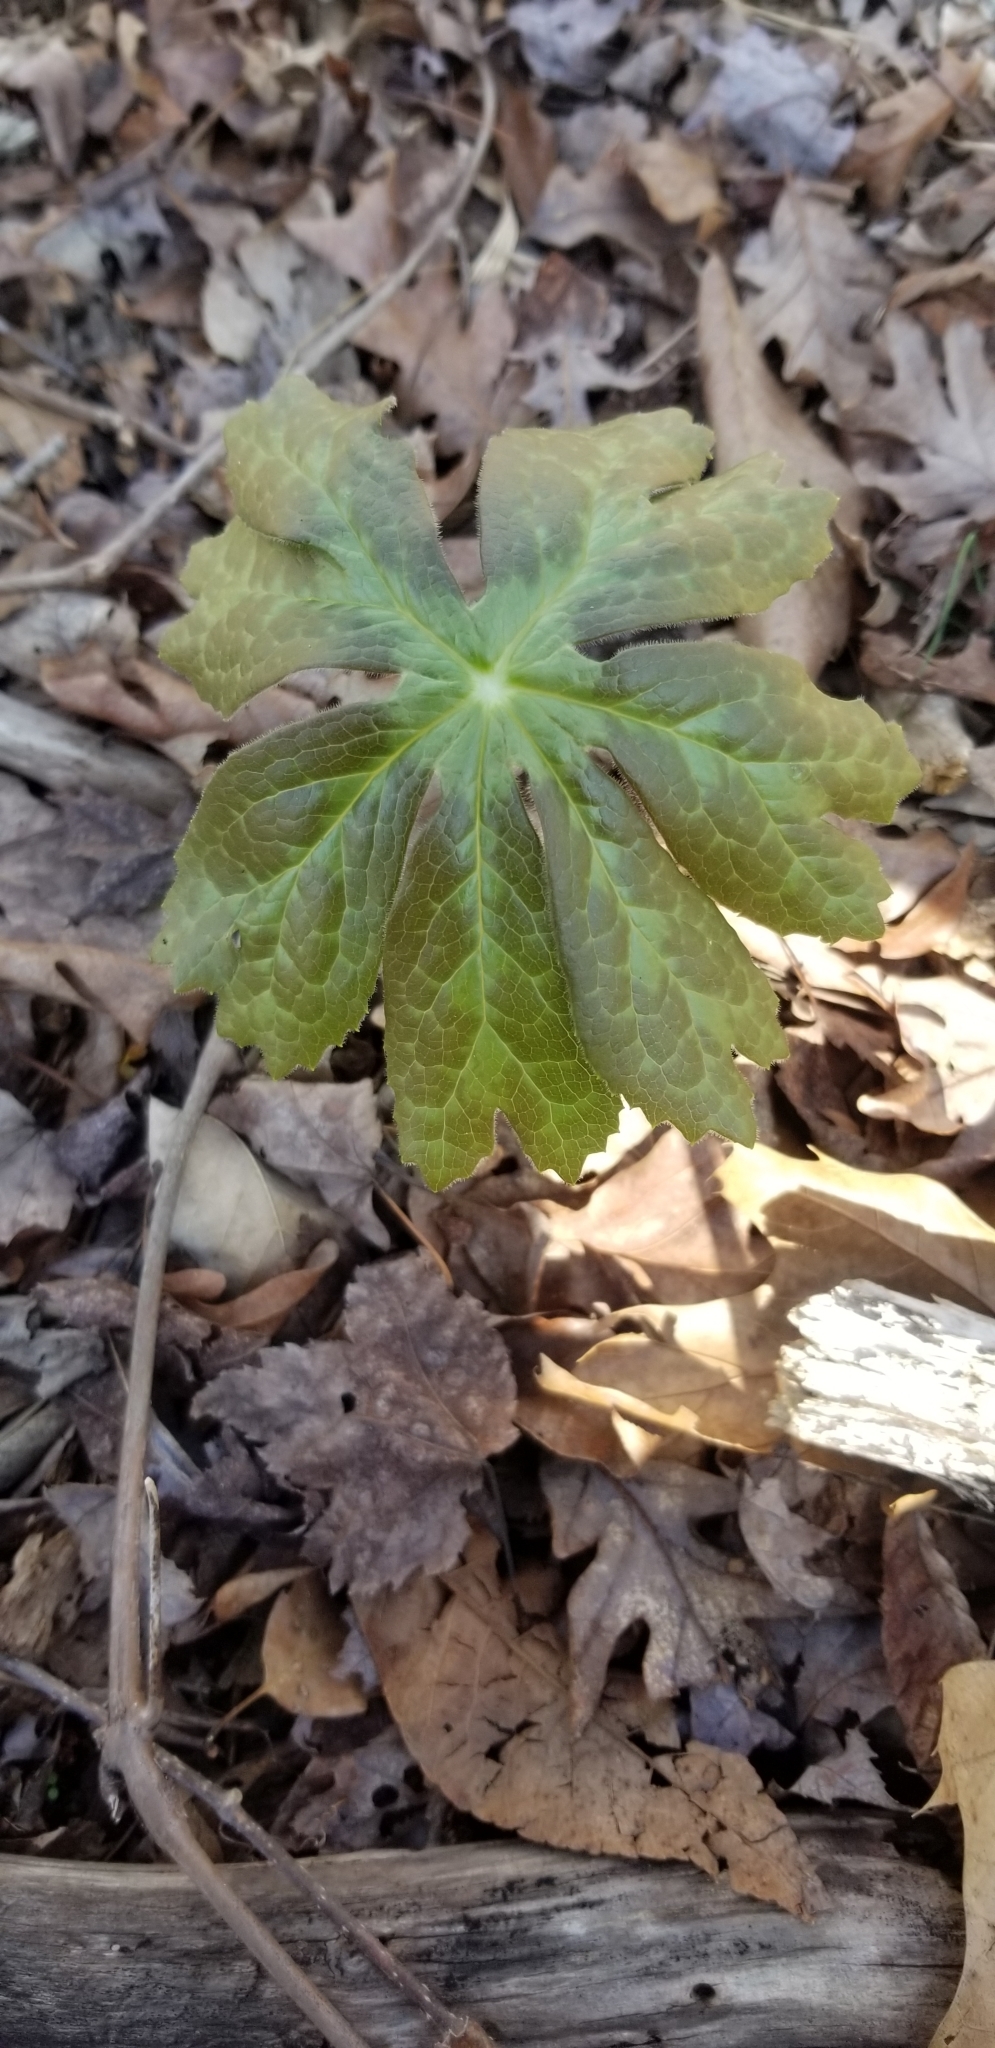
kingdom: Plantae
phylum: Tracheophyta
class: Magnoliopsida
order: Ranunculales
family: Berberidaceae
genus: Podophyllum
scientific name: Podophyllum peltatum
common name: Wild mandrake
